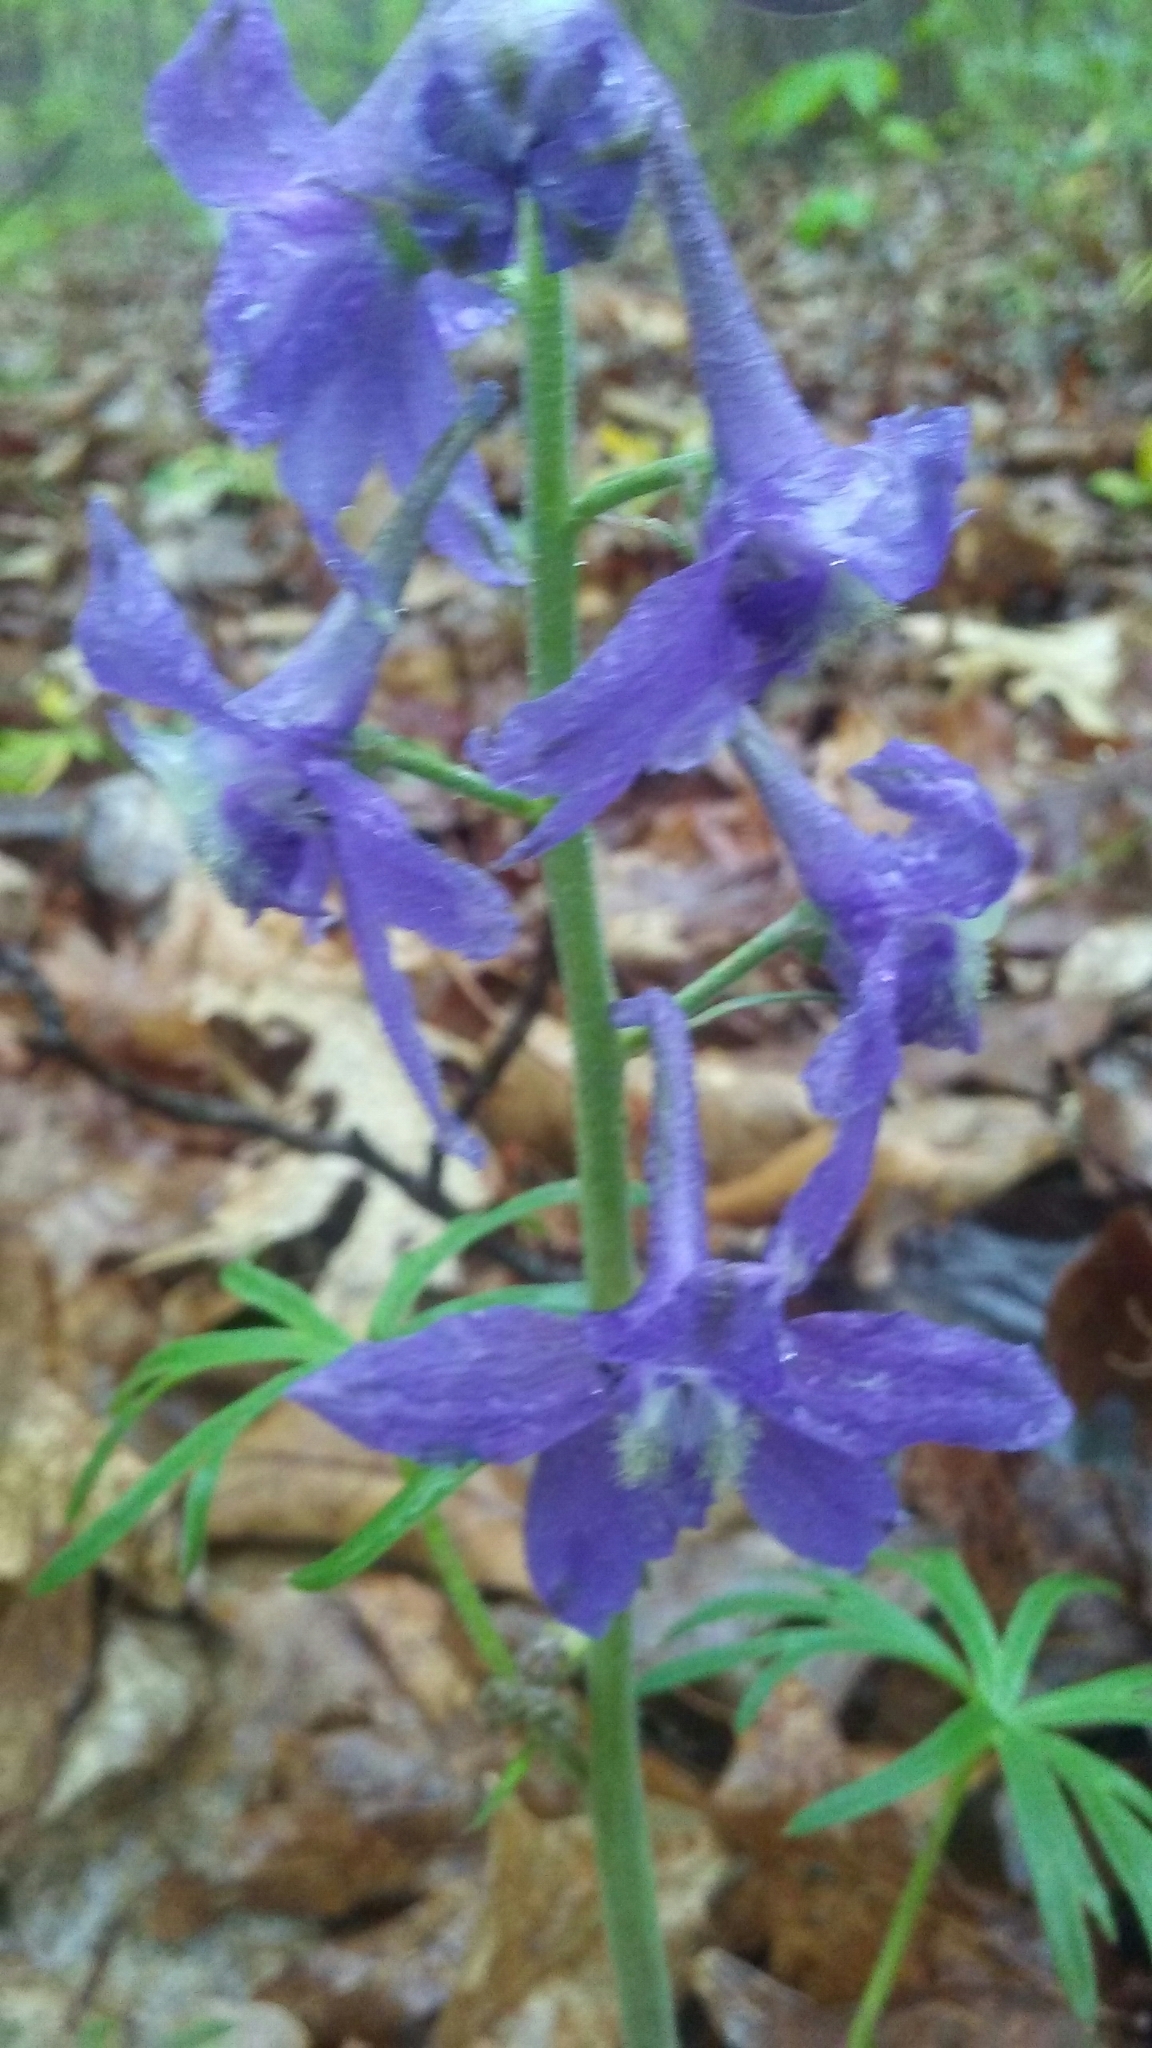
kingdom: Plantae
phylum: Tracheophyta
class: Magnoliopsida
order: Ranunculales
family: Ranunculaceae
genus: Delphinium
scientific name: Delphinium tricorne
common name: Dwarf larkspur
